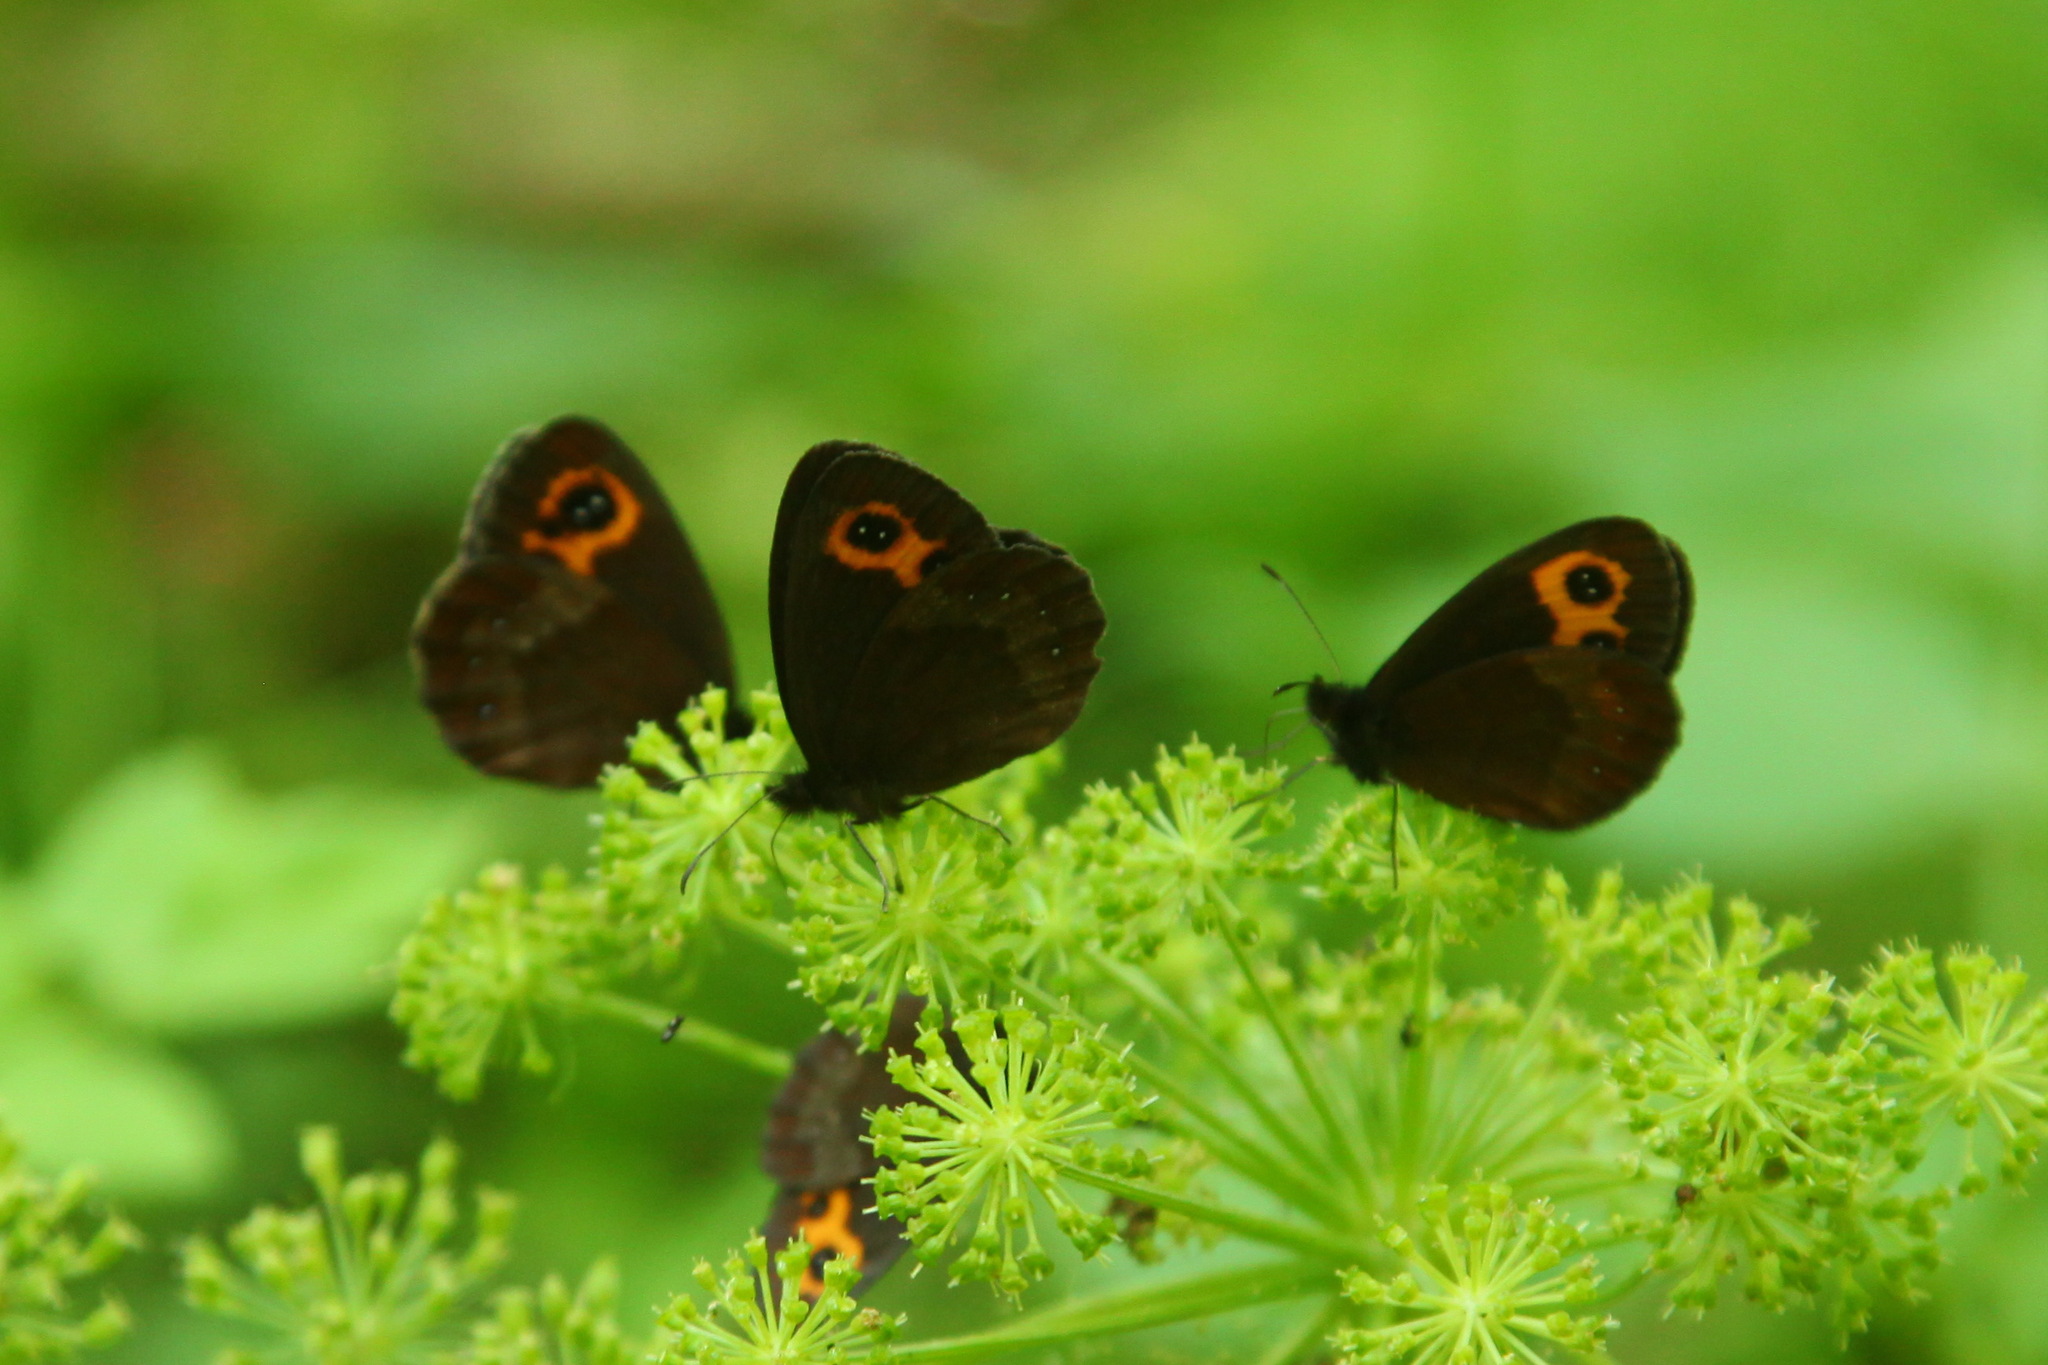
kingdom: Animalia
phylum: Arthropoda
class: Insecta
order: Lepidoptera
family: Nymphalidae
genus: Erebia
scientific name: Erebia neriene
